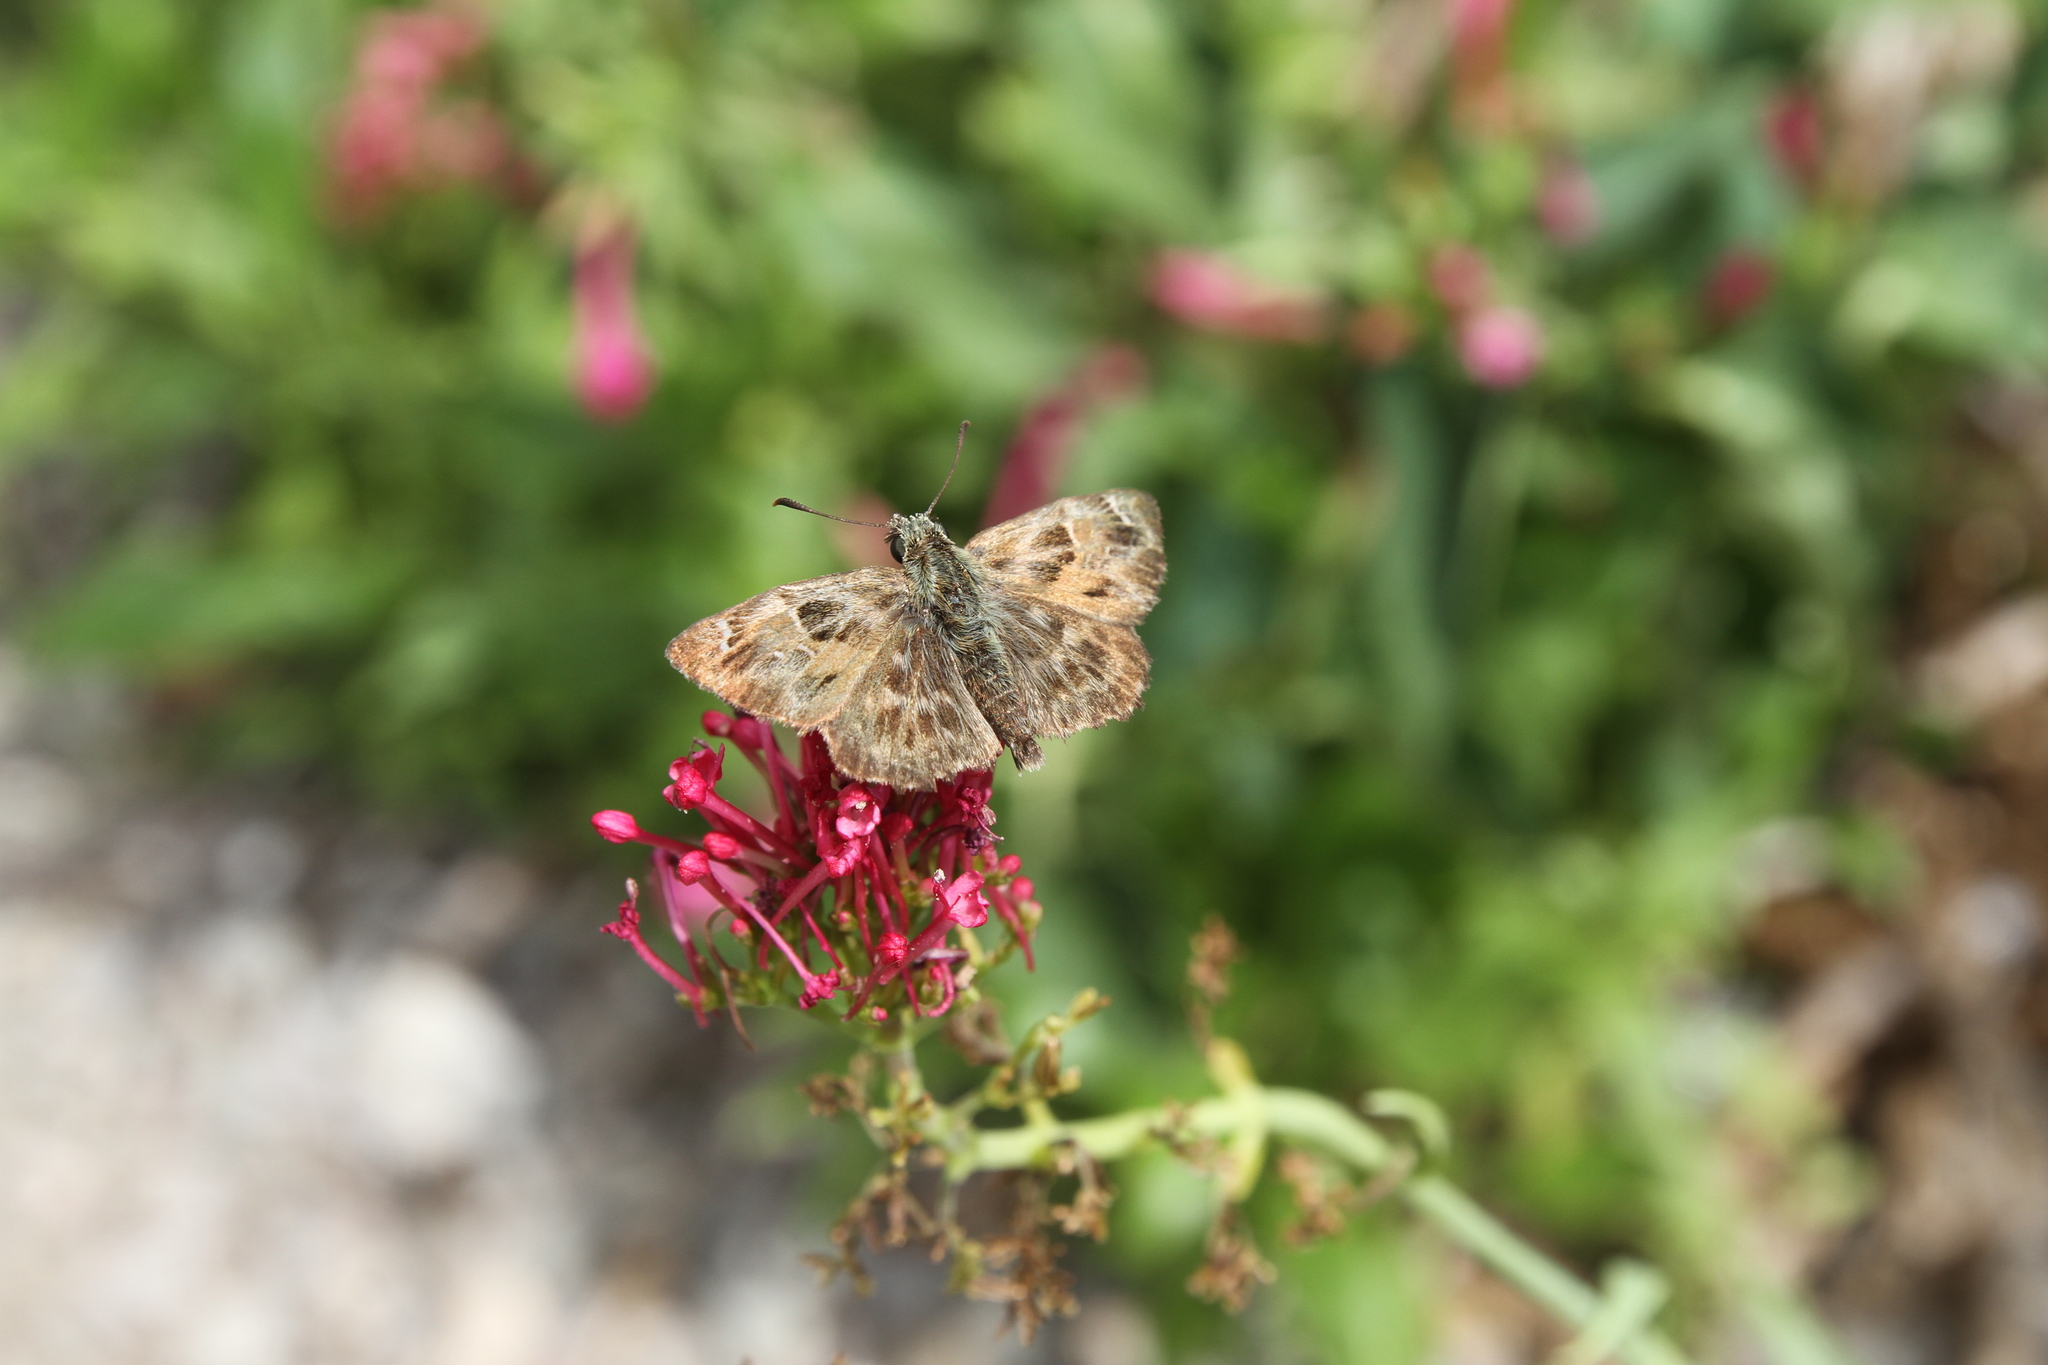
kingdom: Animalia
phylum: Arthropoda
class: Insecta
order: Lepidoptera
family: Hesperiidae
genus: Carcharodus
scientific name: Carcharodus alceae
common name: Mallow skipper
